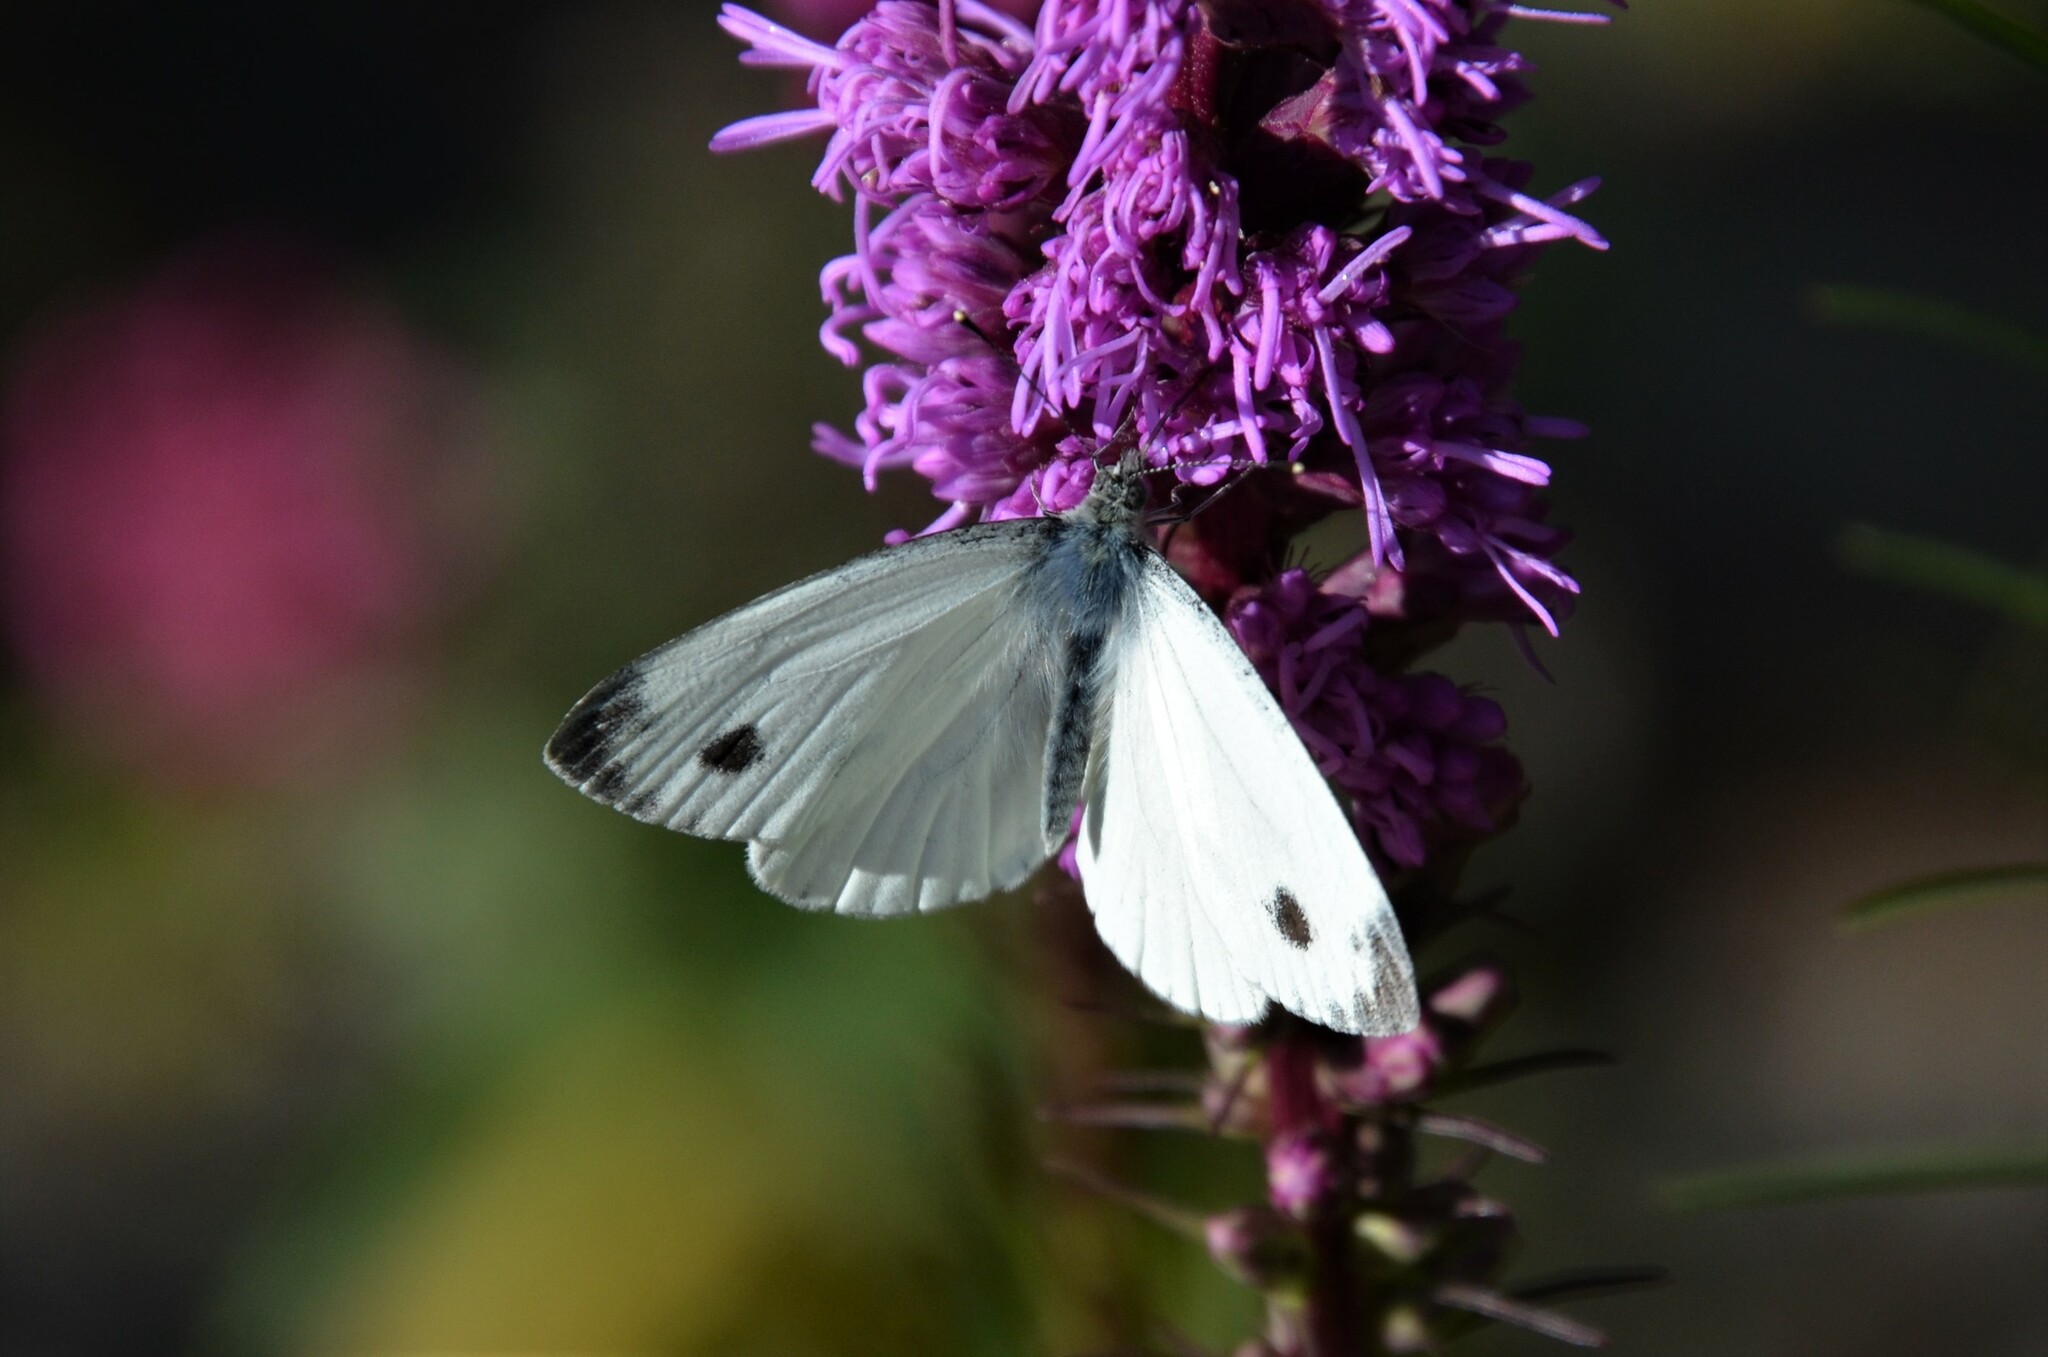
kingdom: Animalia
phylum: Arthropoda
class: Insecta
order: Lepidoptera
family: Pieridae
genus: Pieris
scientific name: Pieris napi
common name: Green-veined white
